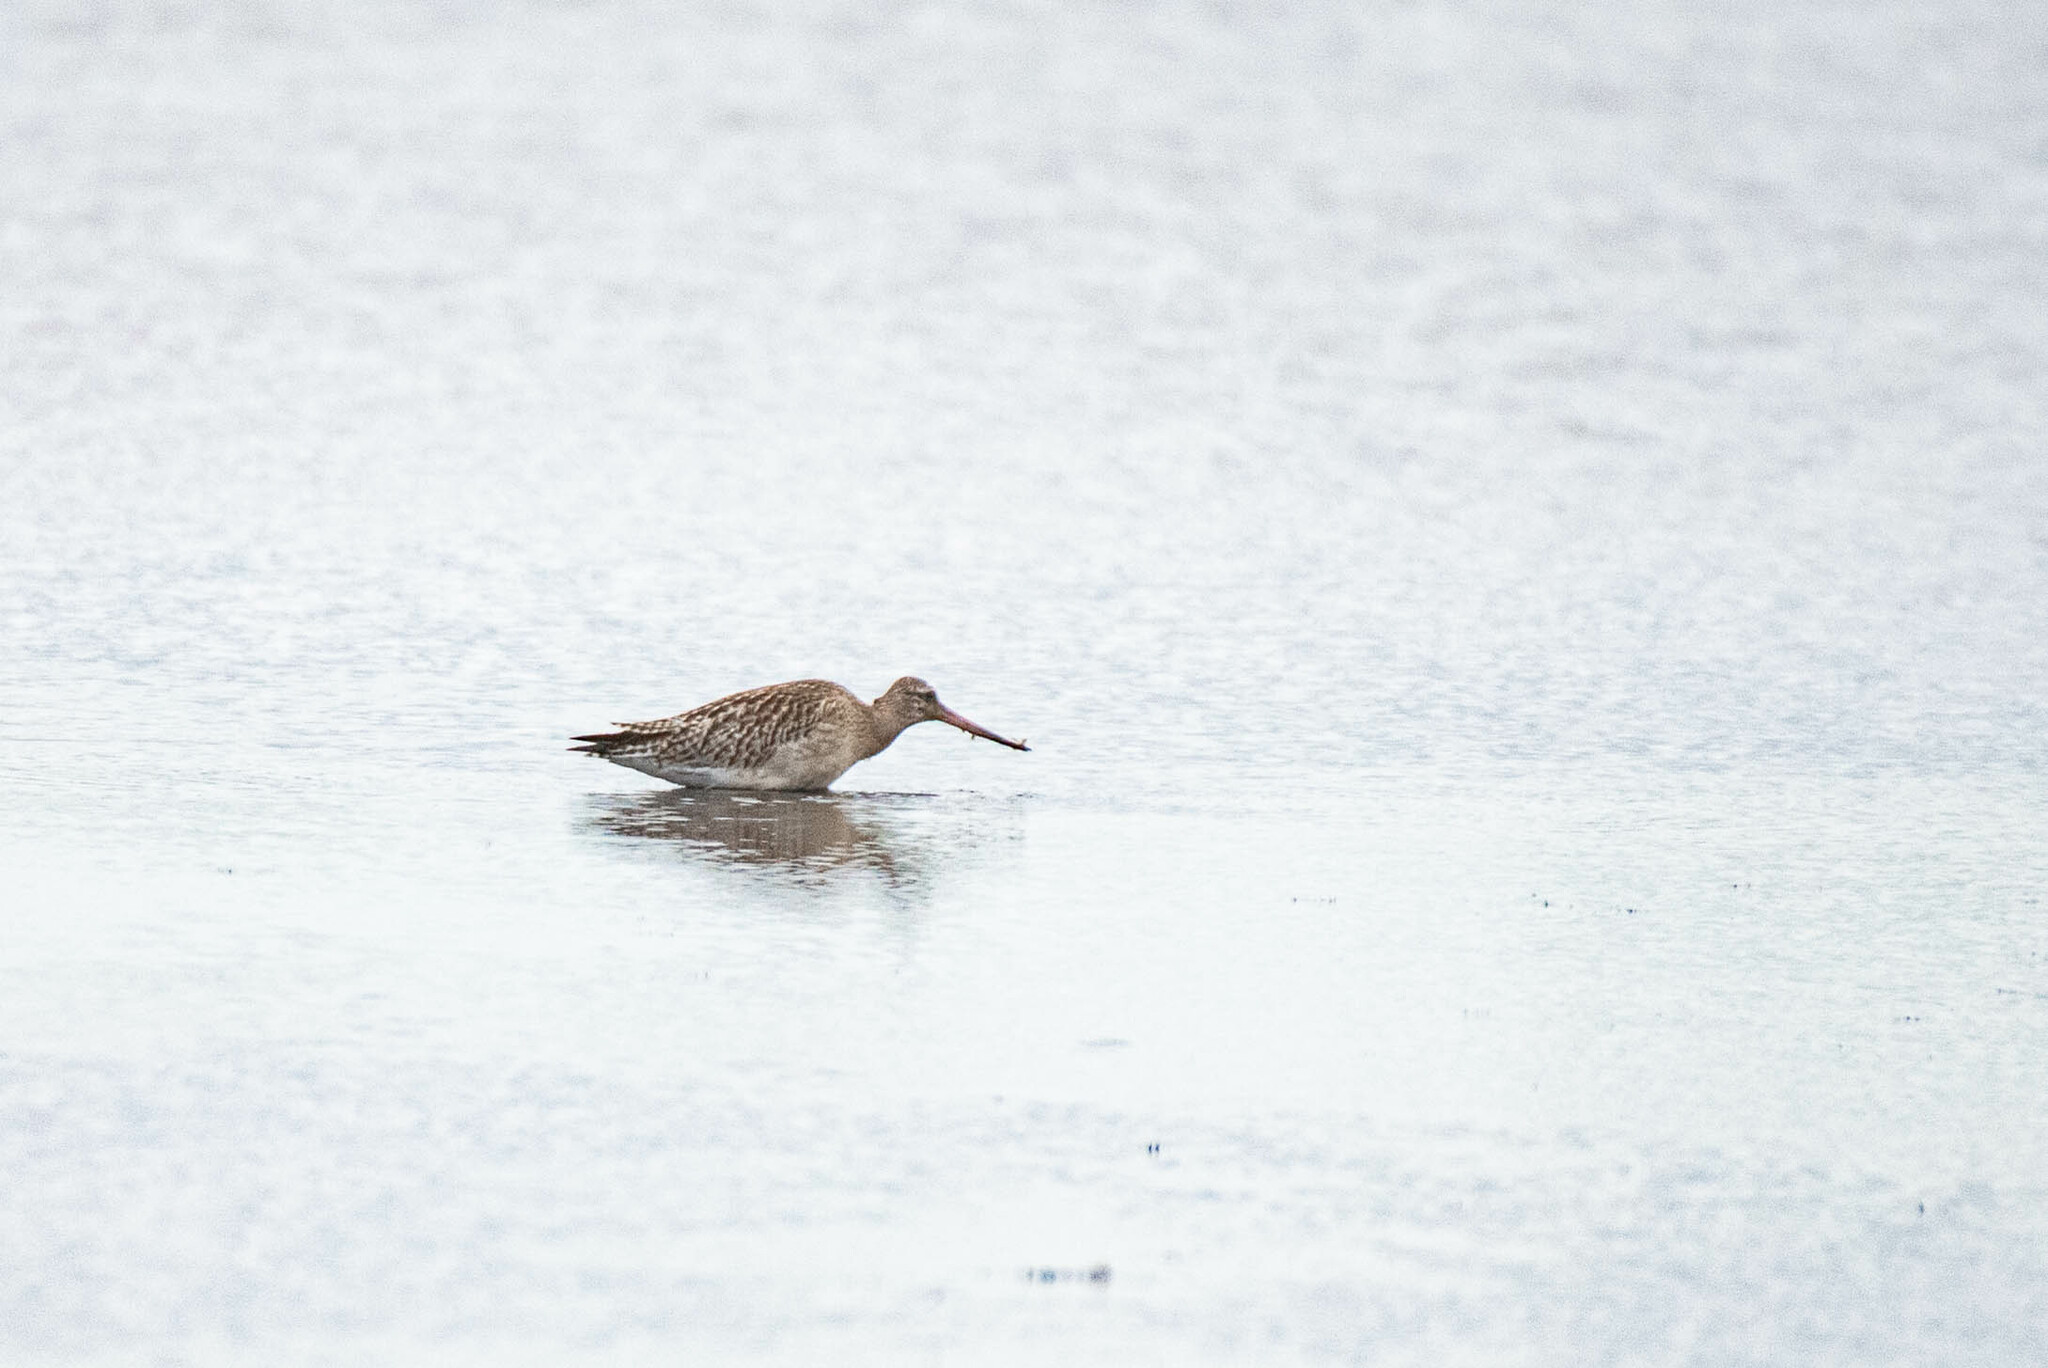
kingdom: Animalia
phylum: Chordata
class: Aves
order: Charadriiformes
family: Scolopacidae
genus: Limosa
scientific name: Limosa lapponica
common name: Bar-tailed godwit
